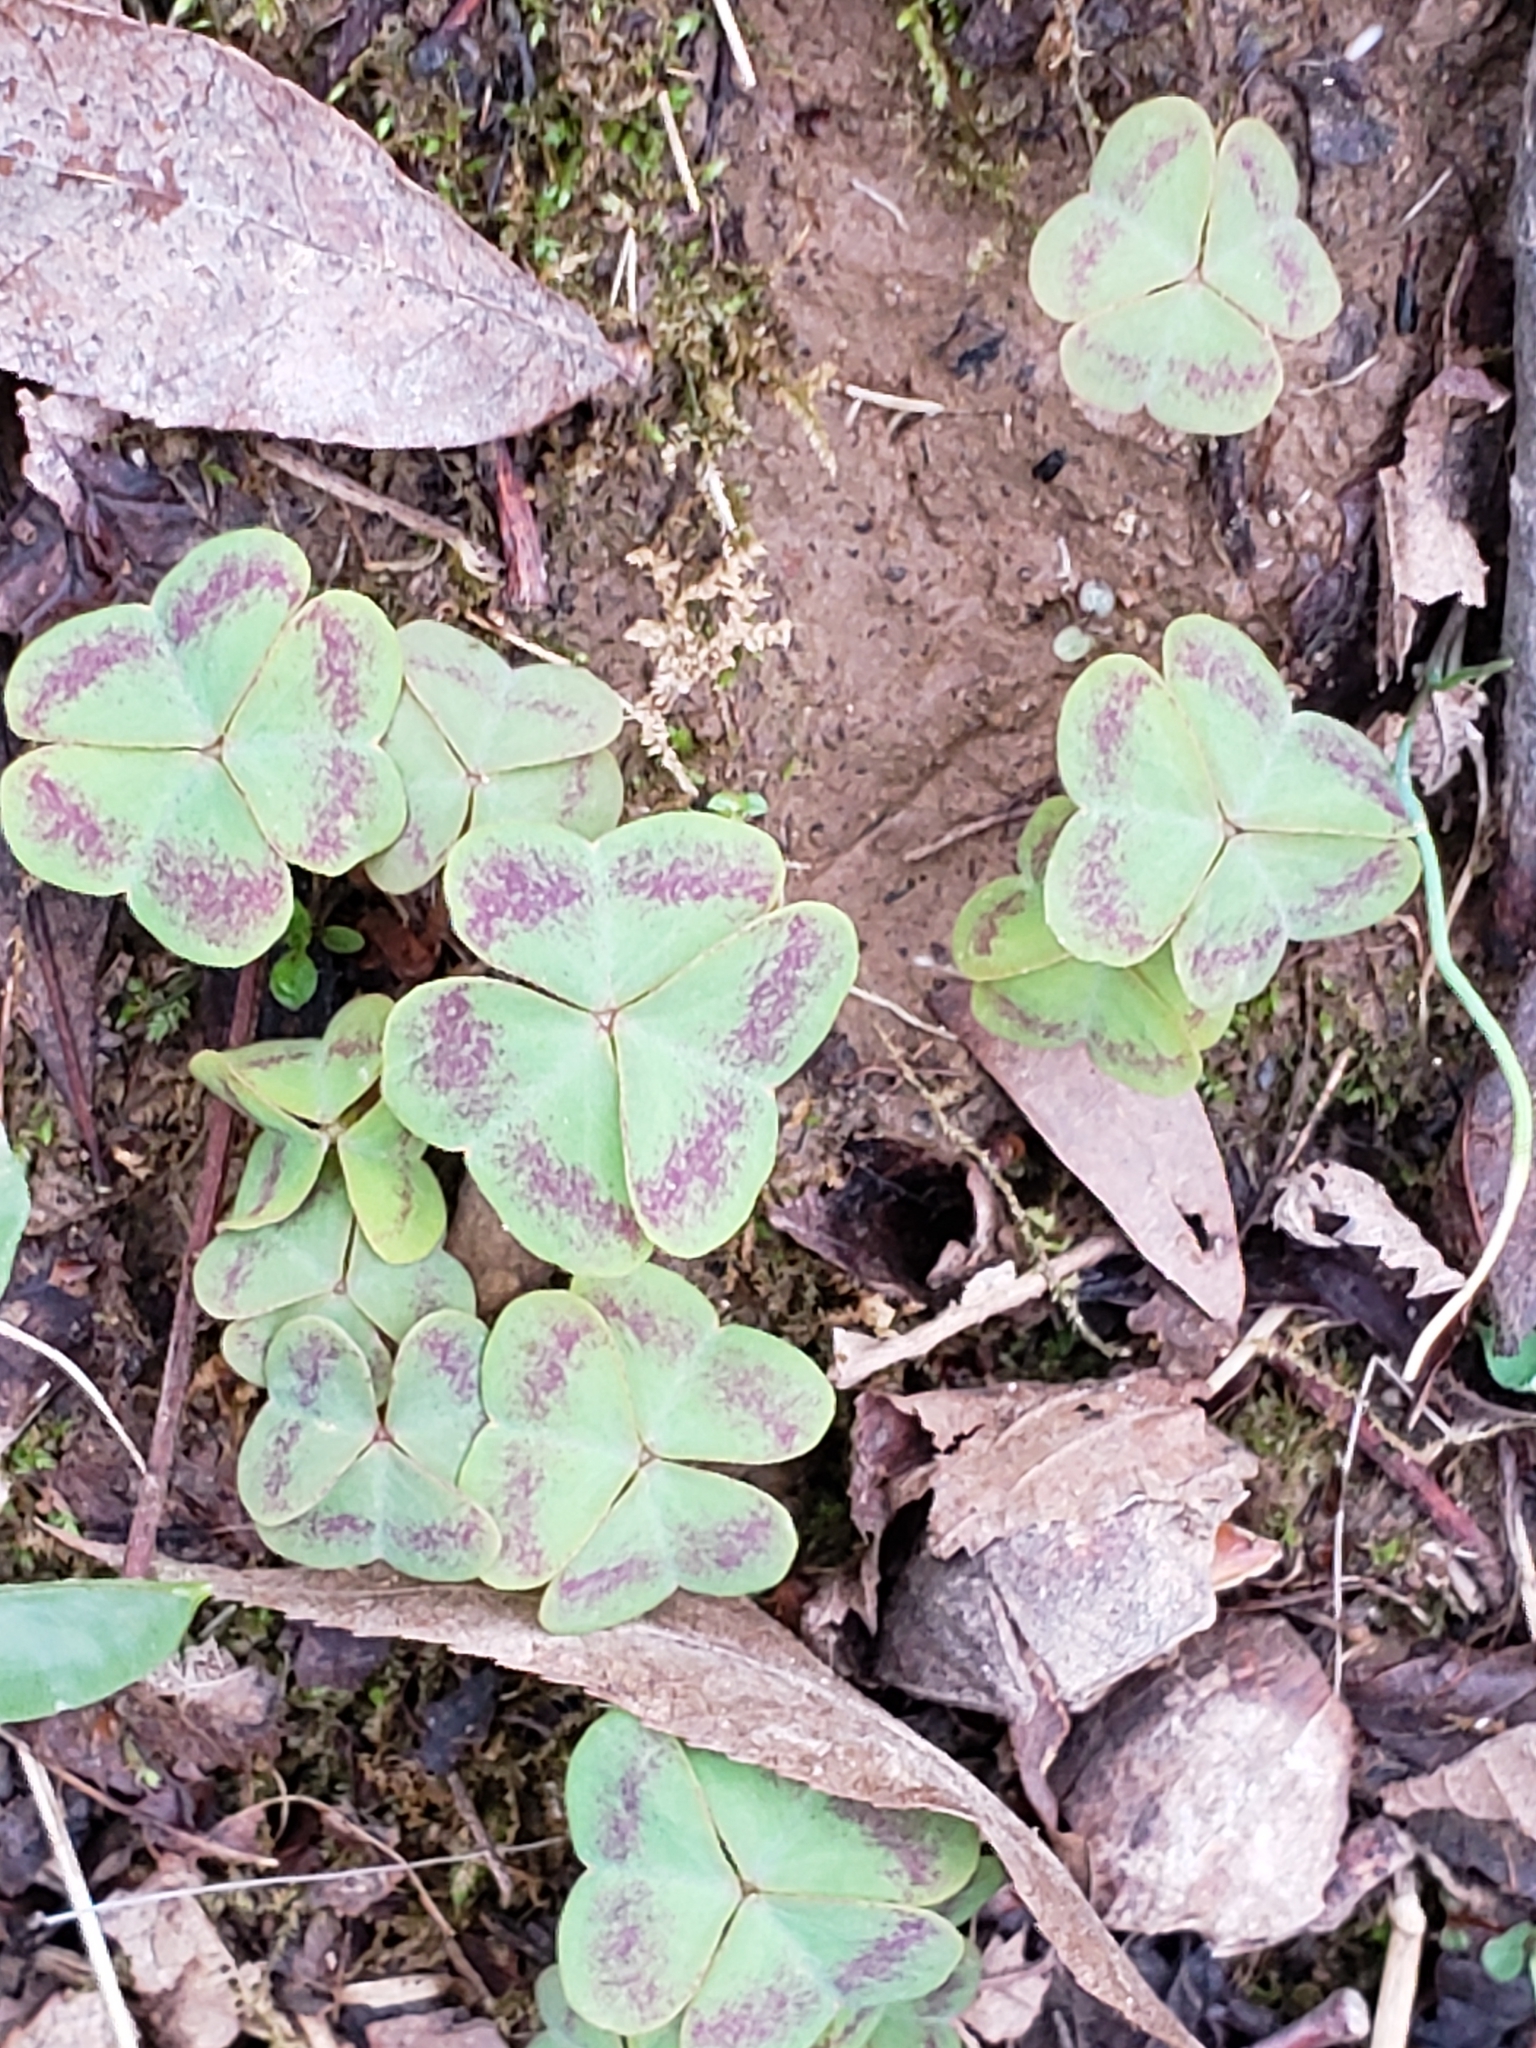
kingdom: Plantae
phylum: Tracheophyta
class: Magnoliopsida
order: Oxalidales
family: Oxalidaceae
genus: Oxalis
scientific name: Oxalis violacea
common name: Violet wood-sorrel
